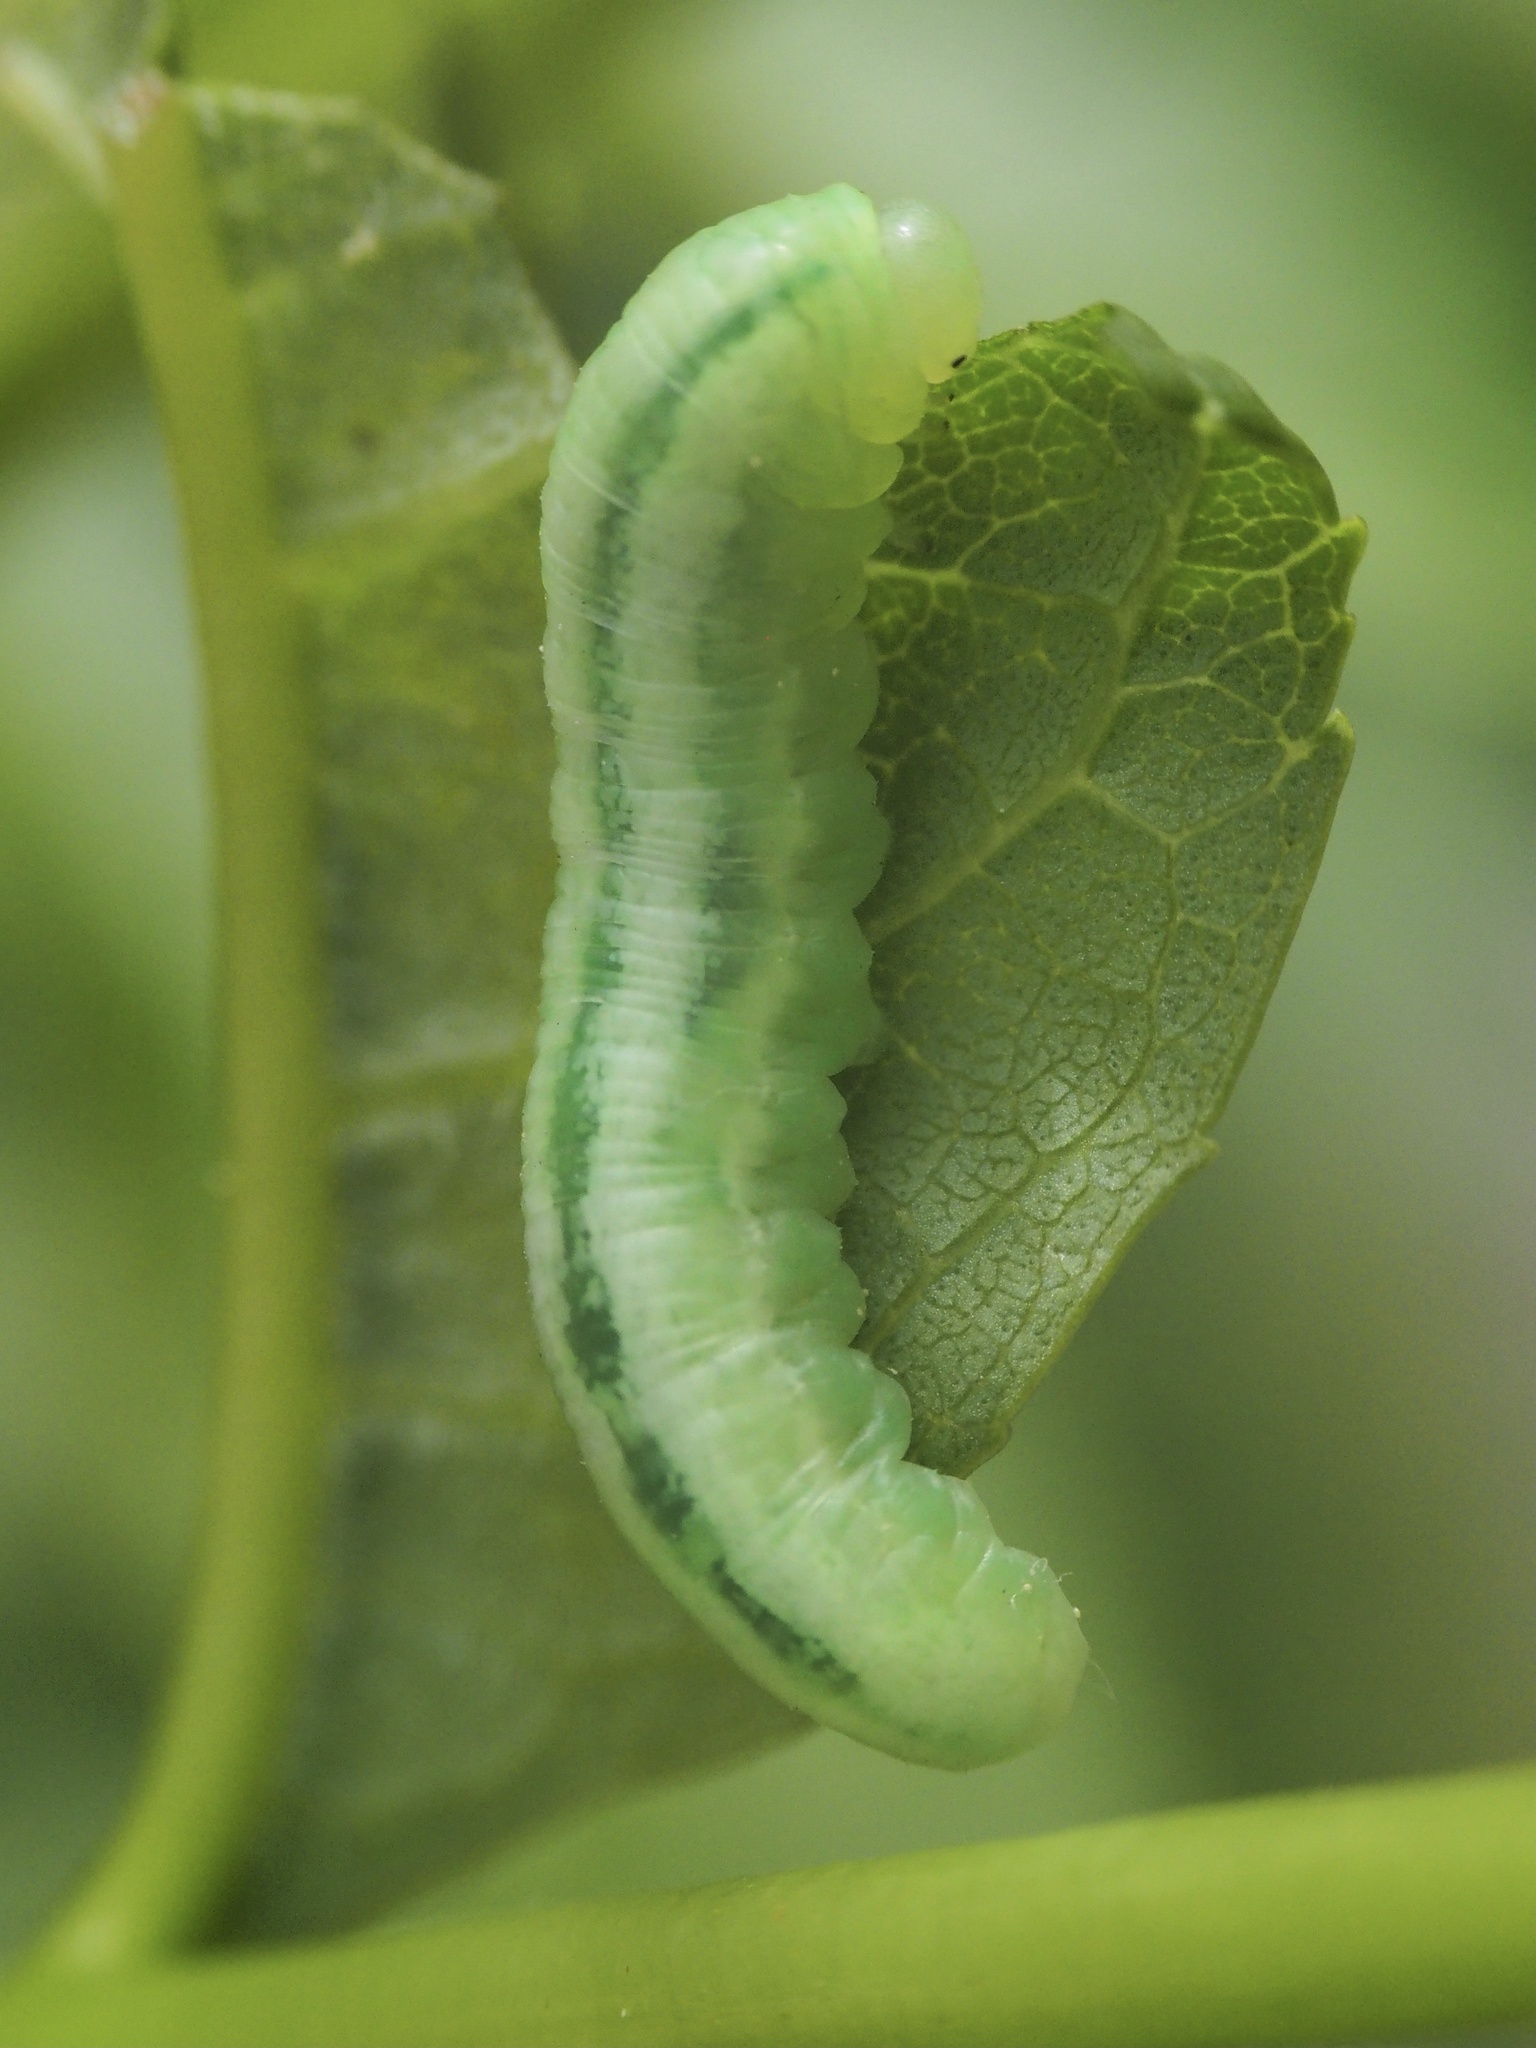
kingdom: Animalia
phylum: Arthropoda
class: Insecta
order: Hymenoptera
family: Tenthredinidae
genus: Tomostethus
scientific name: Tomostethus nigritus
